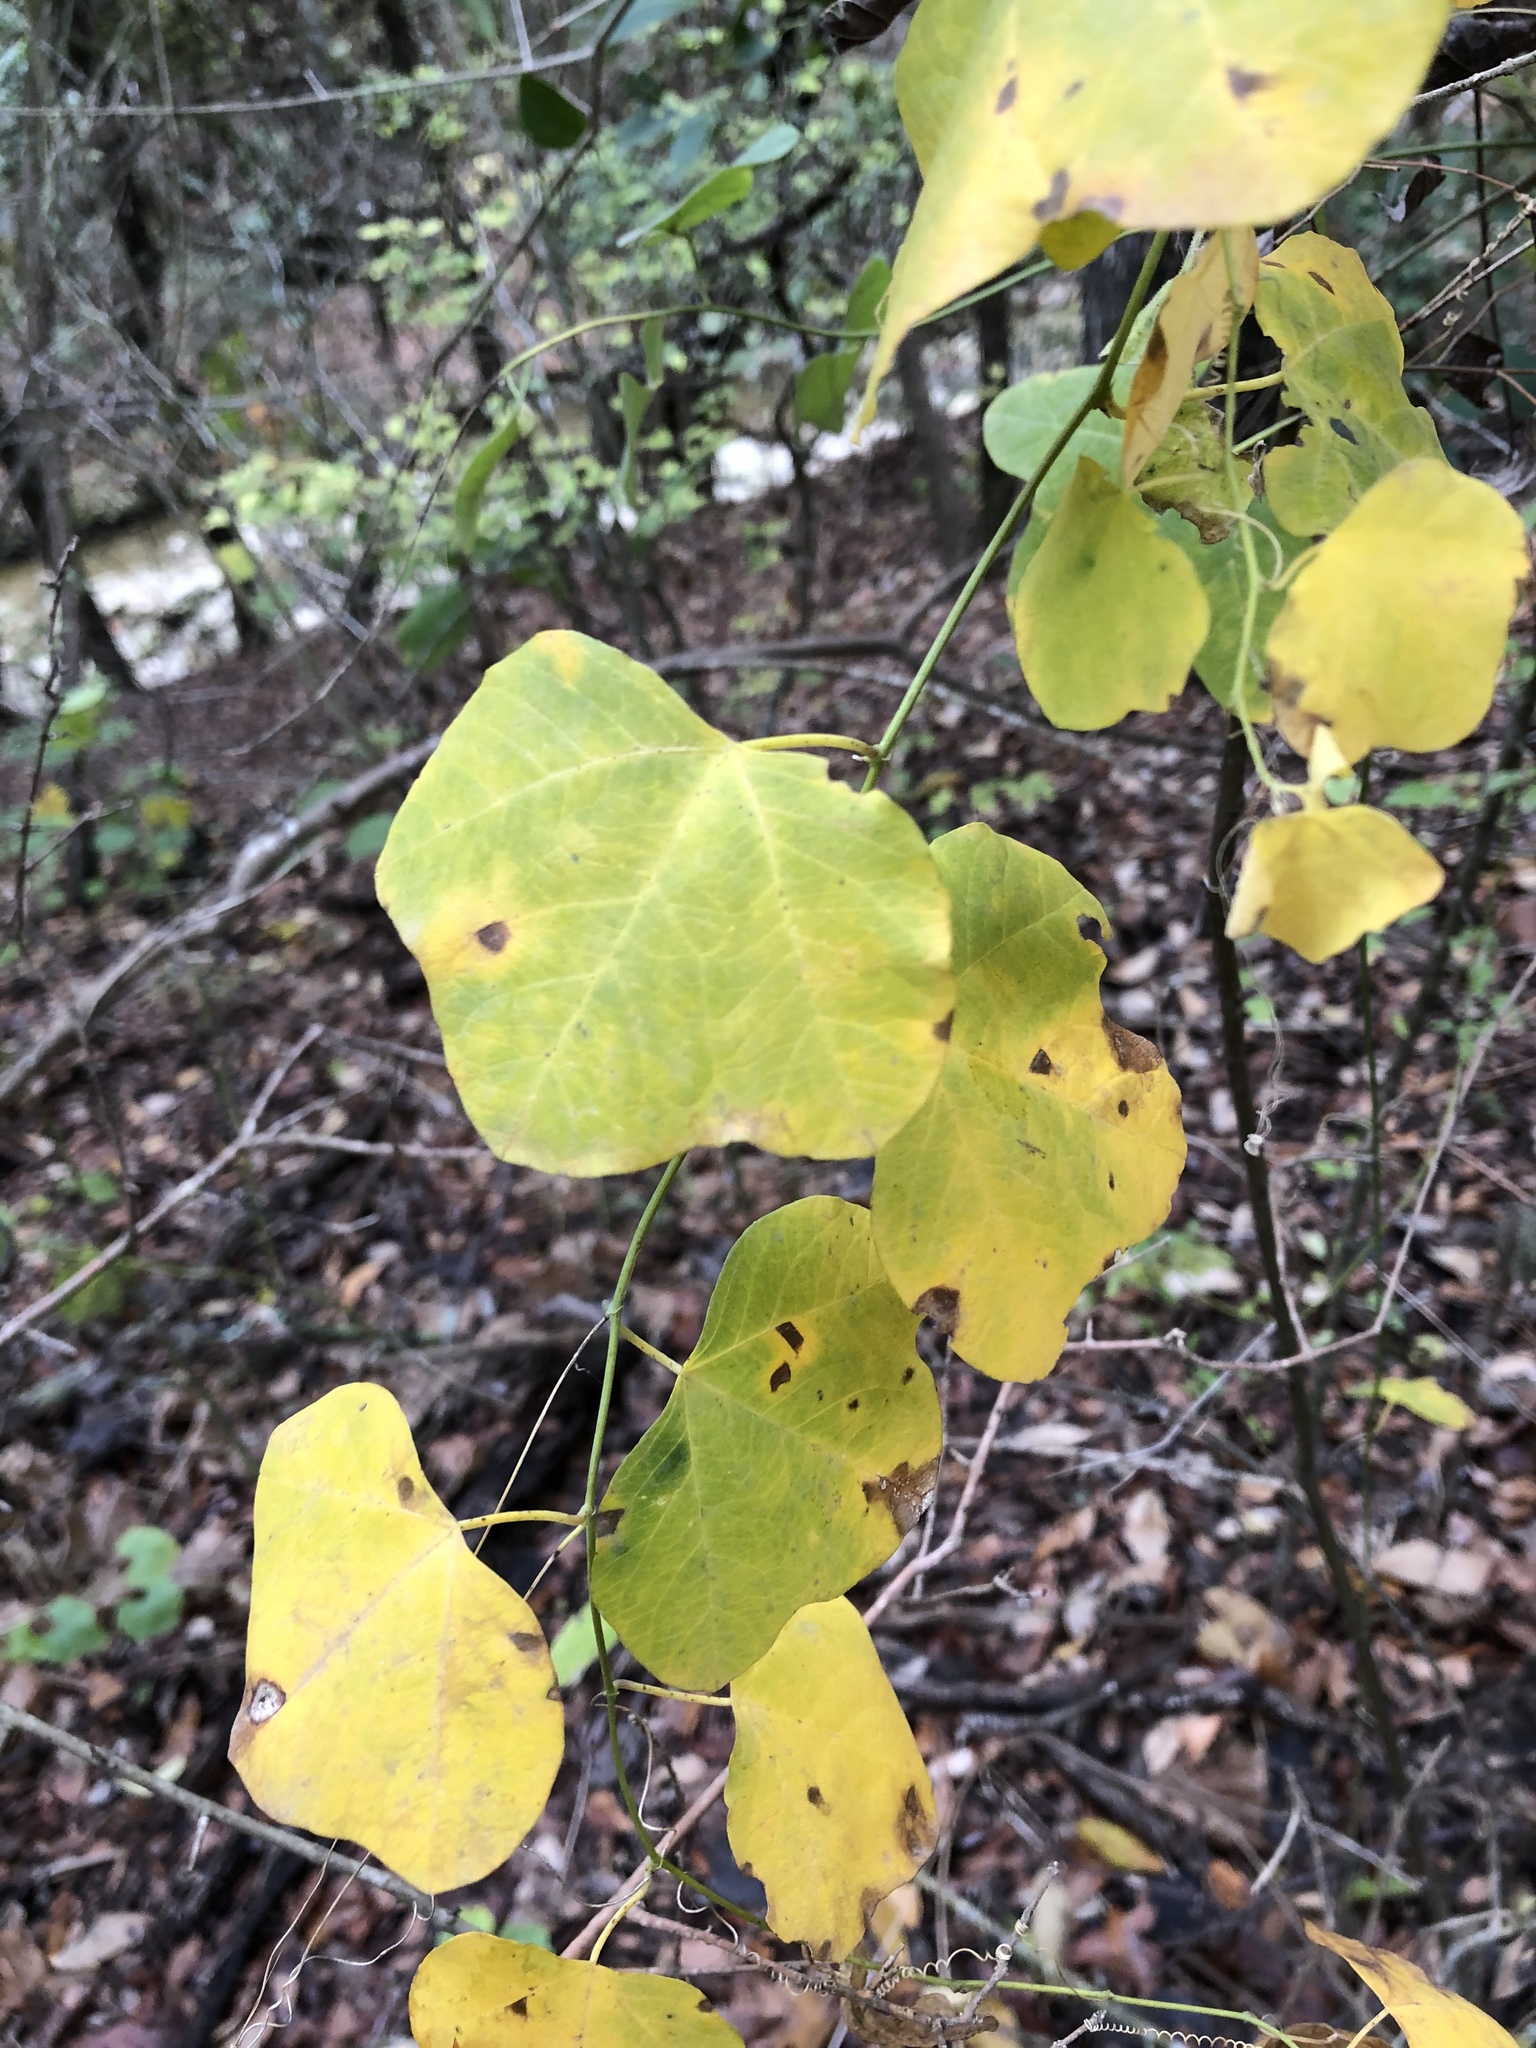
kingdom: Plantae
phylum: Tracheophyta
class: Magnoliopsida
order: Malpighiales
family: Passifloraceae
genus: Passiflora
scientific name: Passiflora lutea
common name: Yellow passionflower
